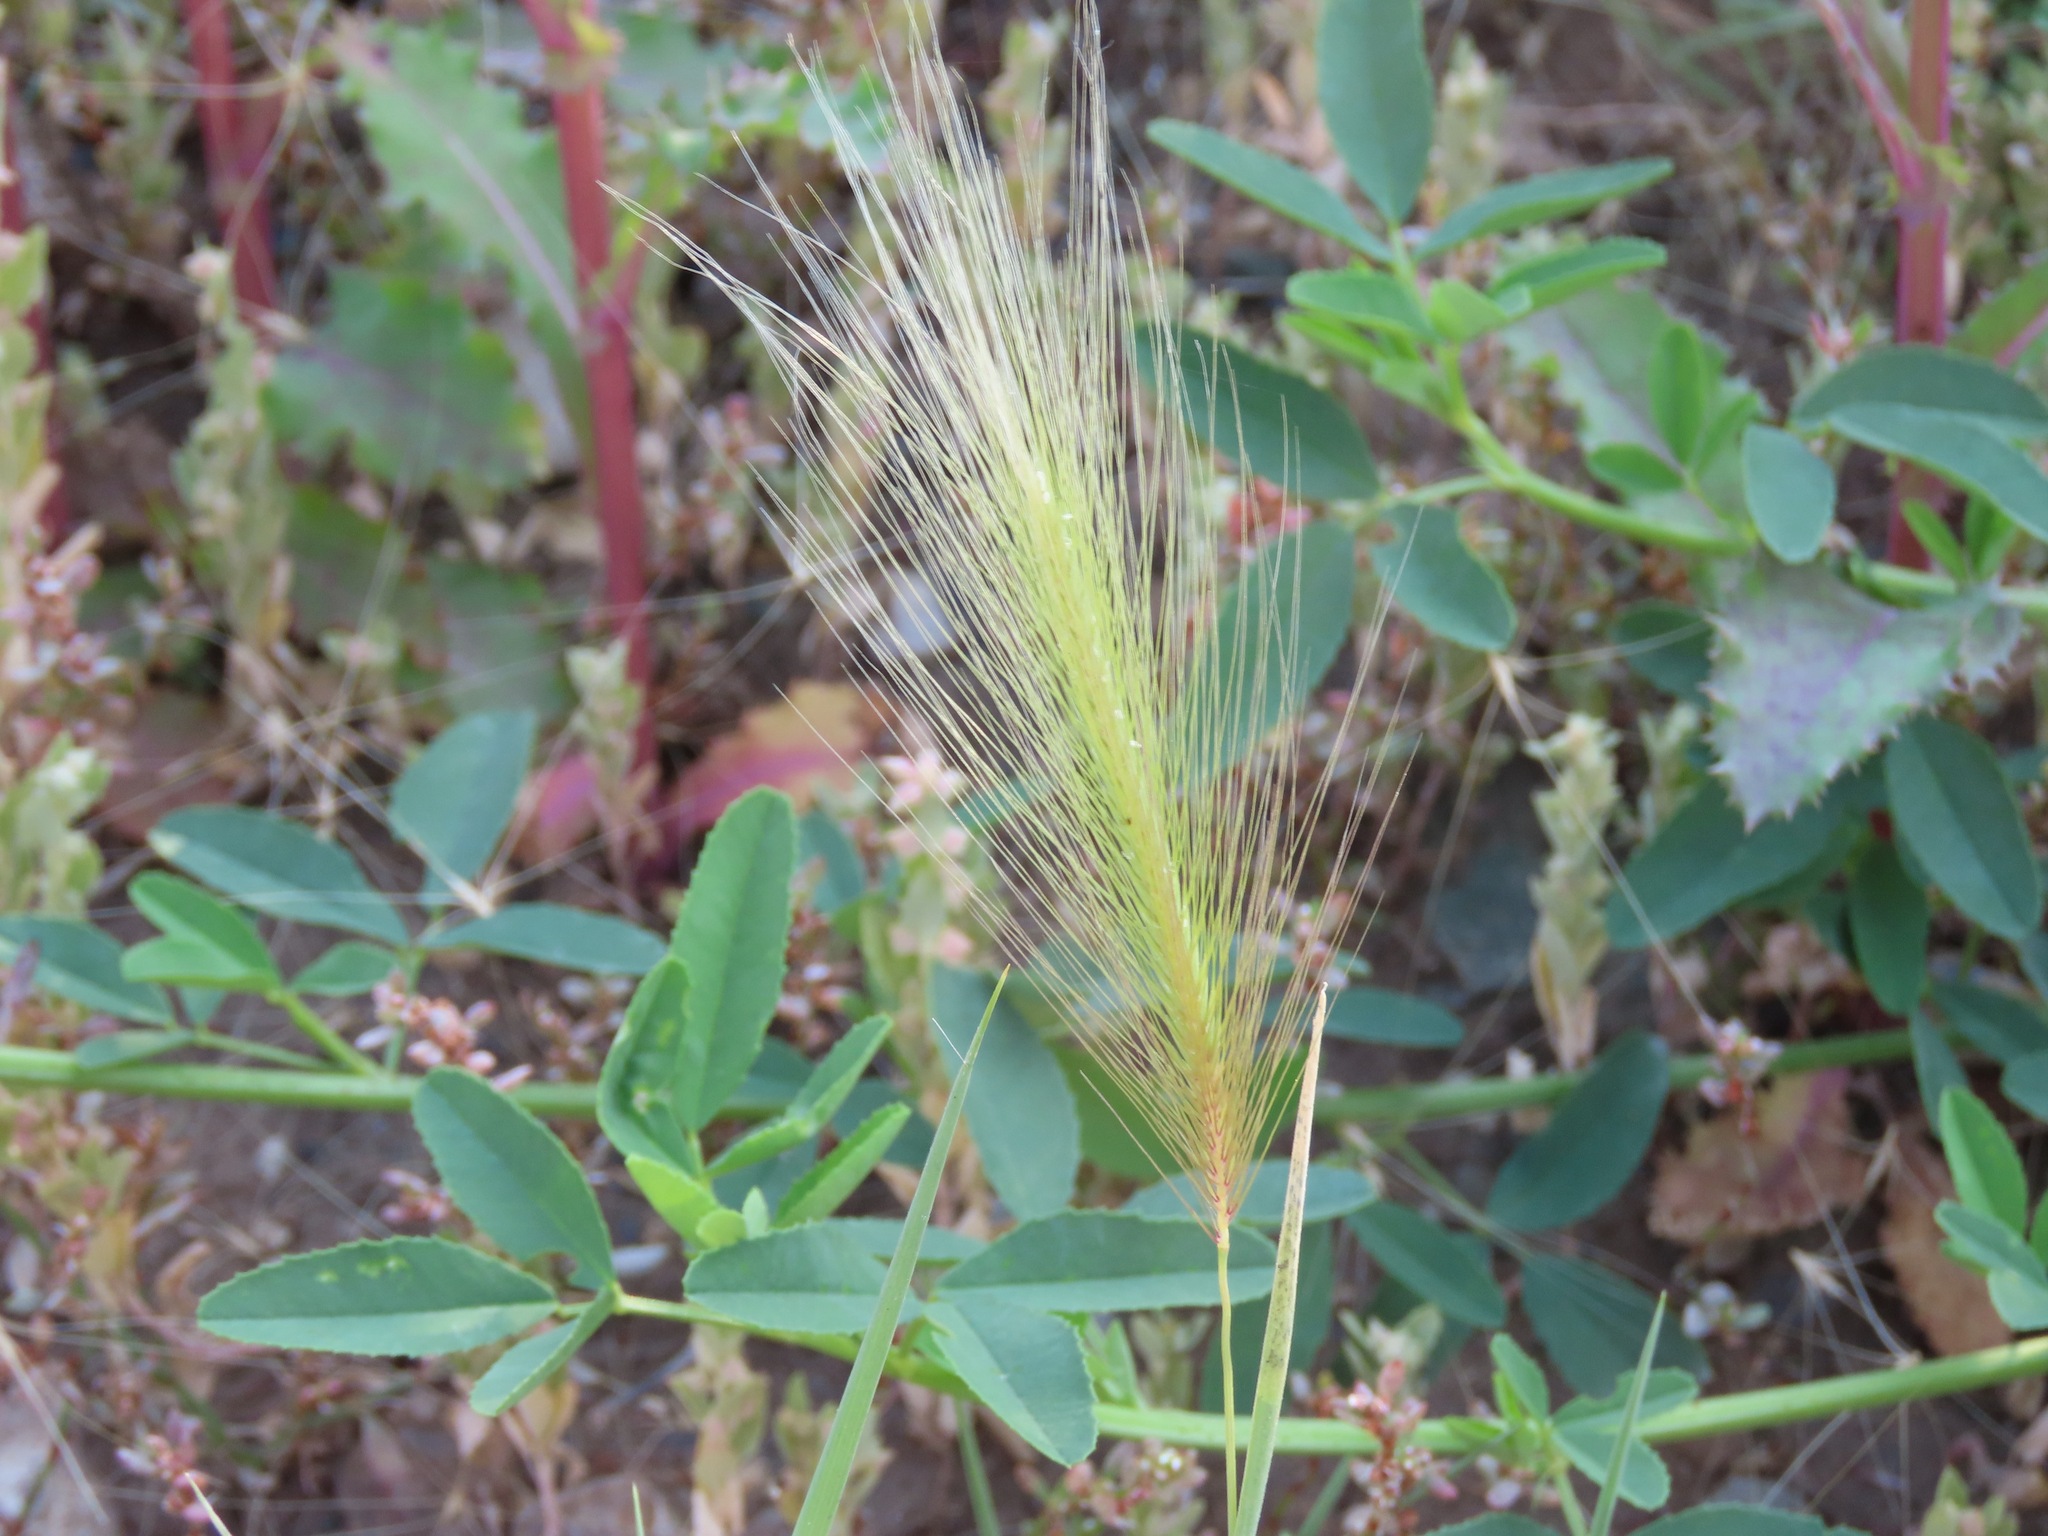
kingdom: Plantae
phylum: Tracheophyta
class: Liliopsida
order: Poales
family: Poaceae
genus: Hordeum
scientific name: Hordeum jubatum
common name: Foxtail barley
